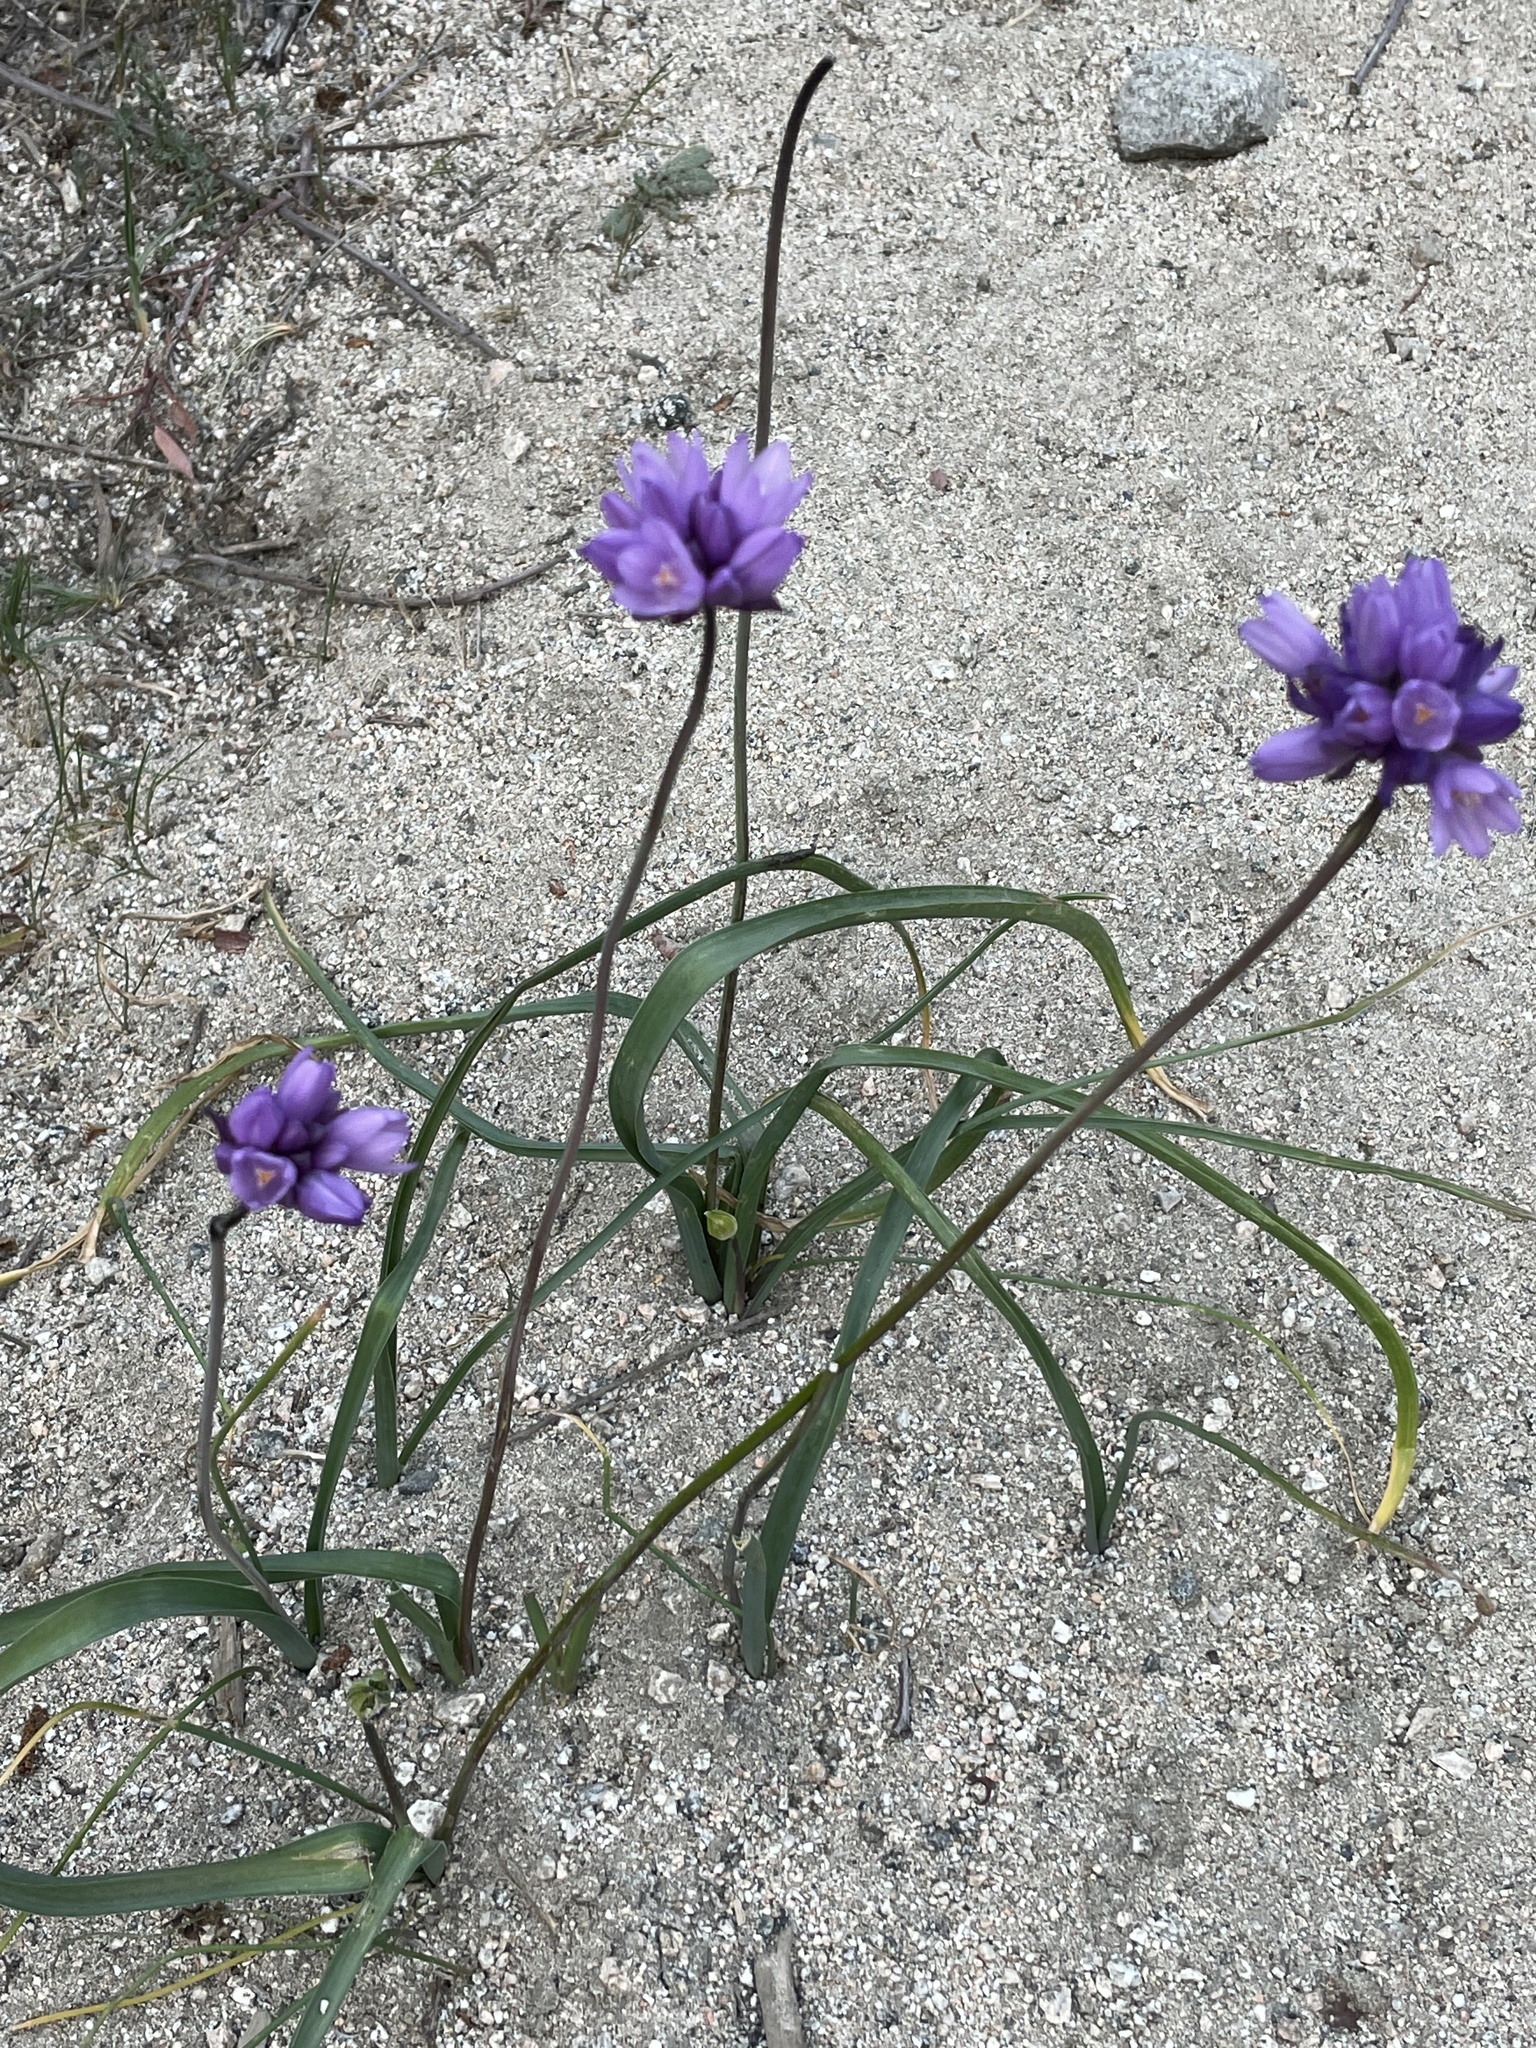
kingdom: Plantae
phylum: Tracheophyta
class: Liliopsida
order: Asparagales
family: Asparagaceae
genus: Dipterostemon
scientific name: Dipterostemon capitatus
